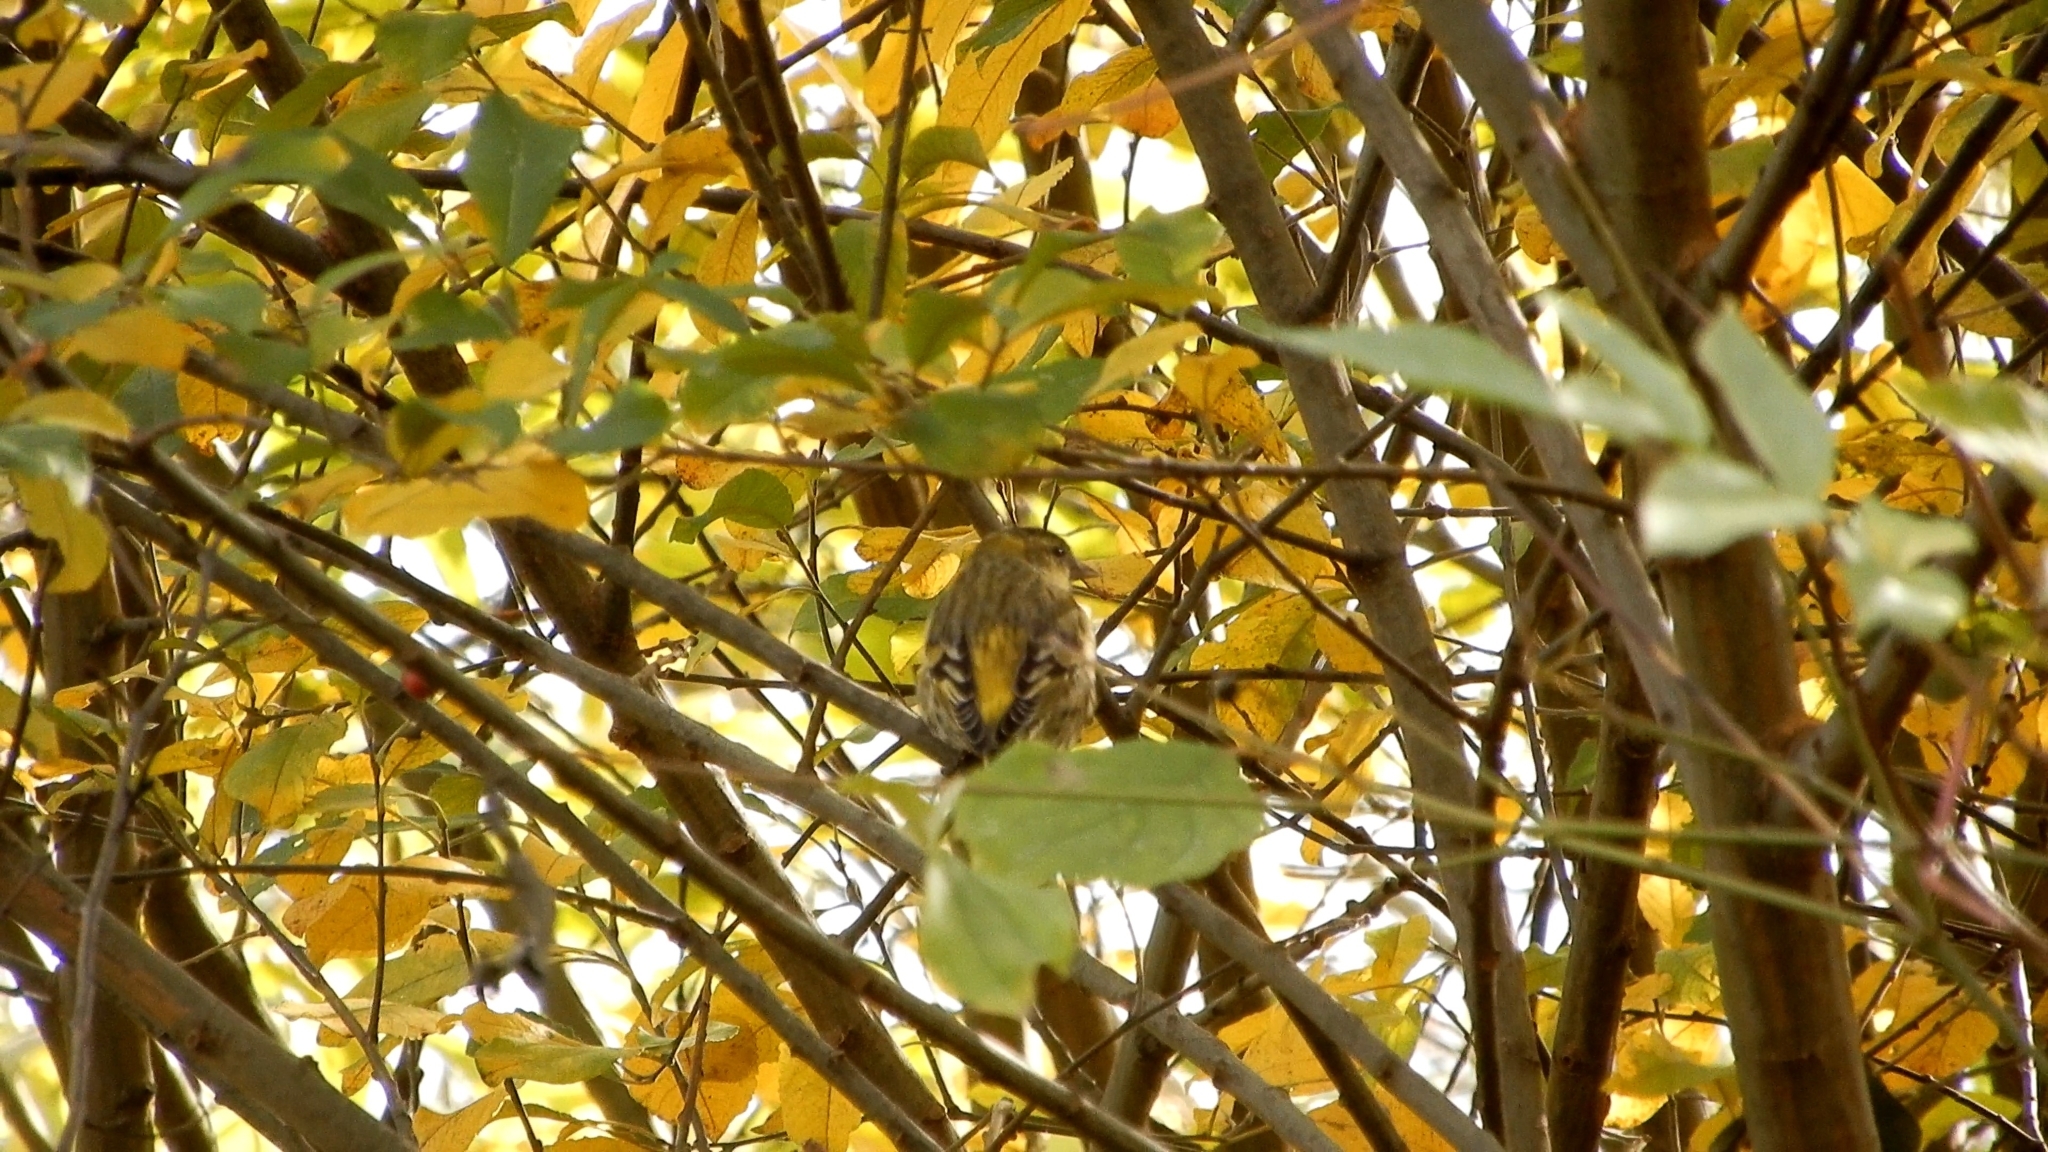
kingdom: Animalia
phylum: Chordata
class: Aves
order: Passeriformes
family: Fringillidae
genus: Spinus
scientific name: Spinus spinus
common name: Eurasian siskin
